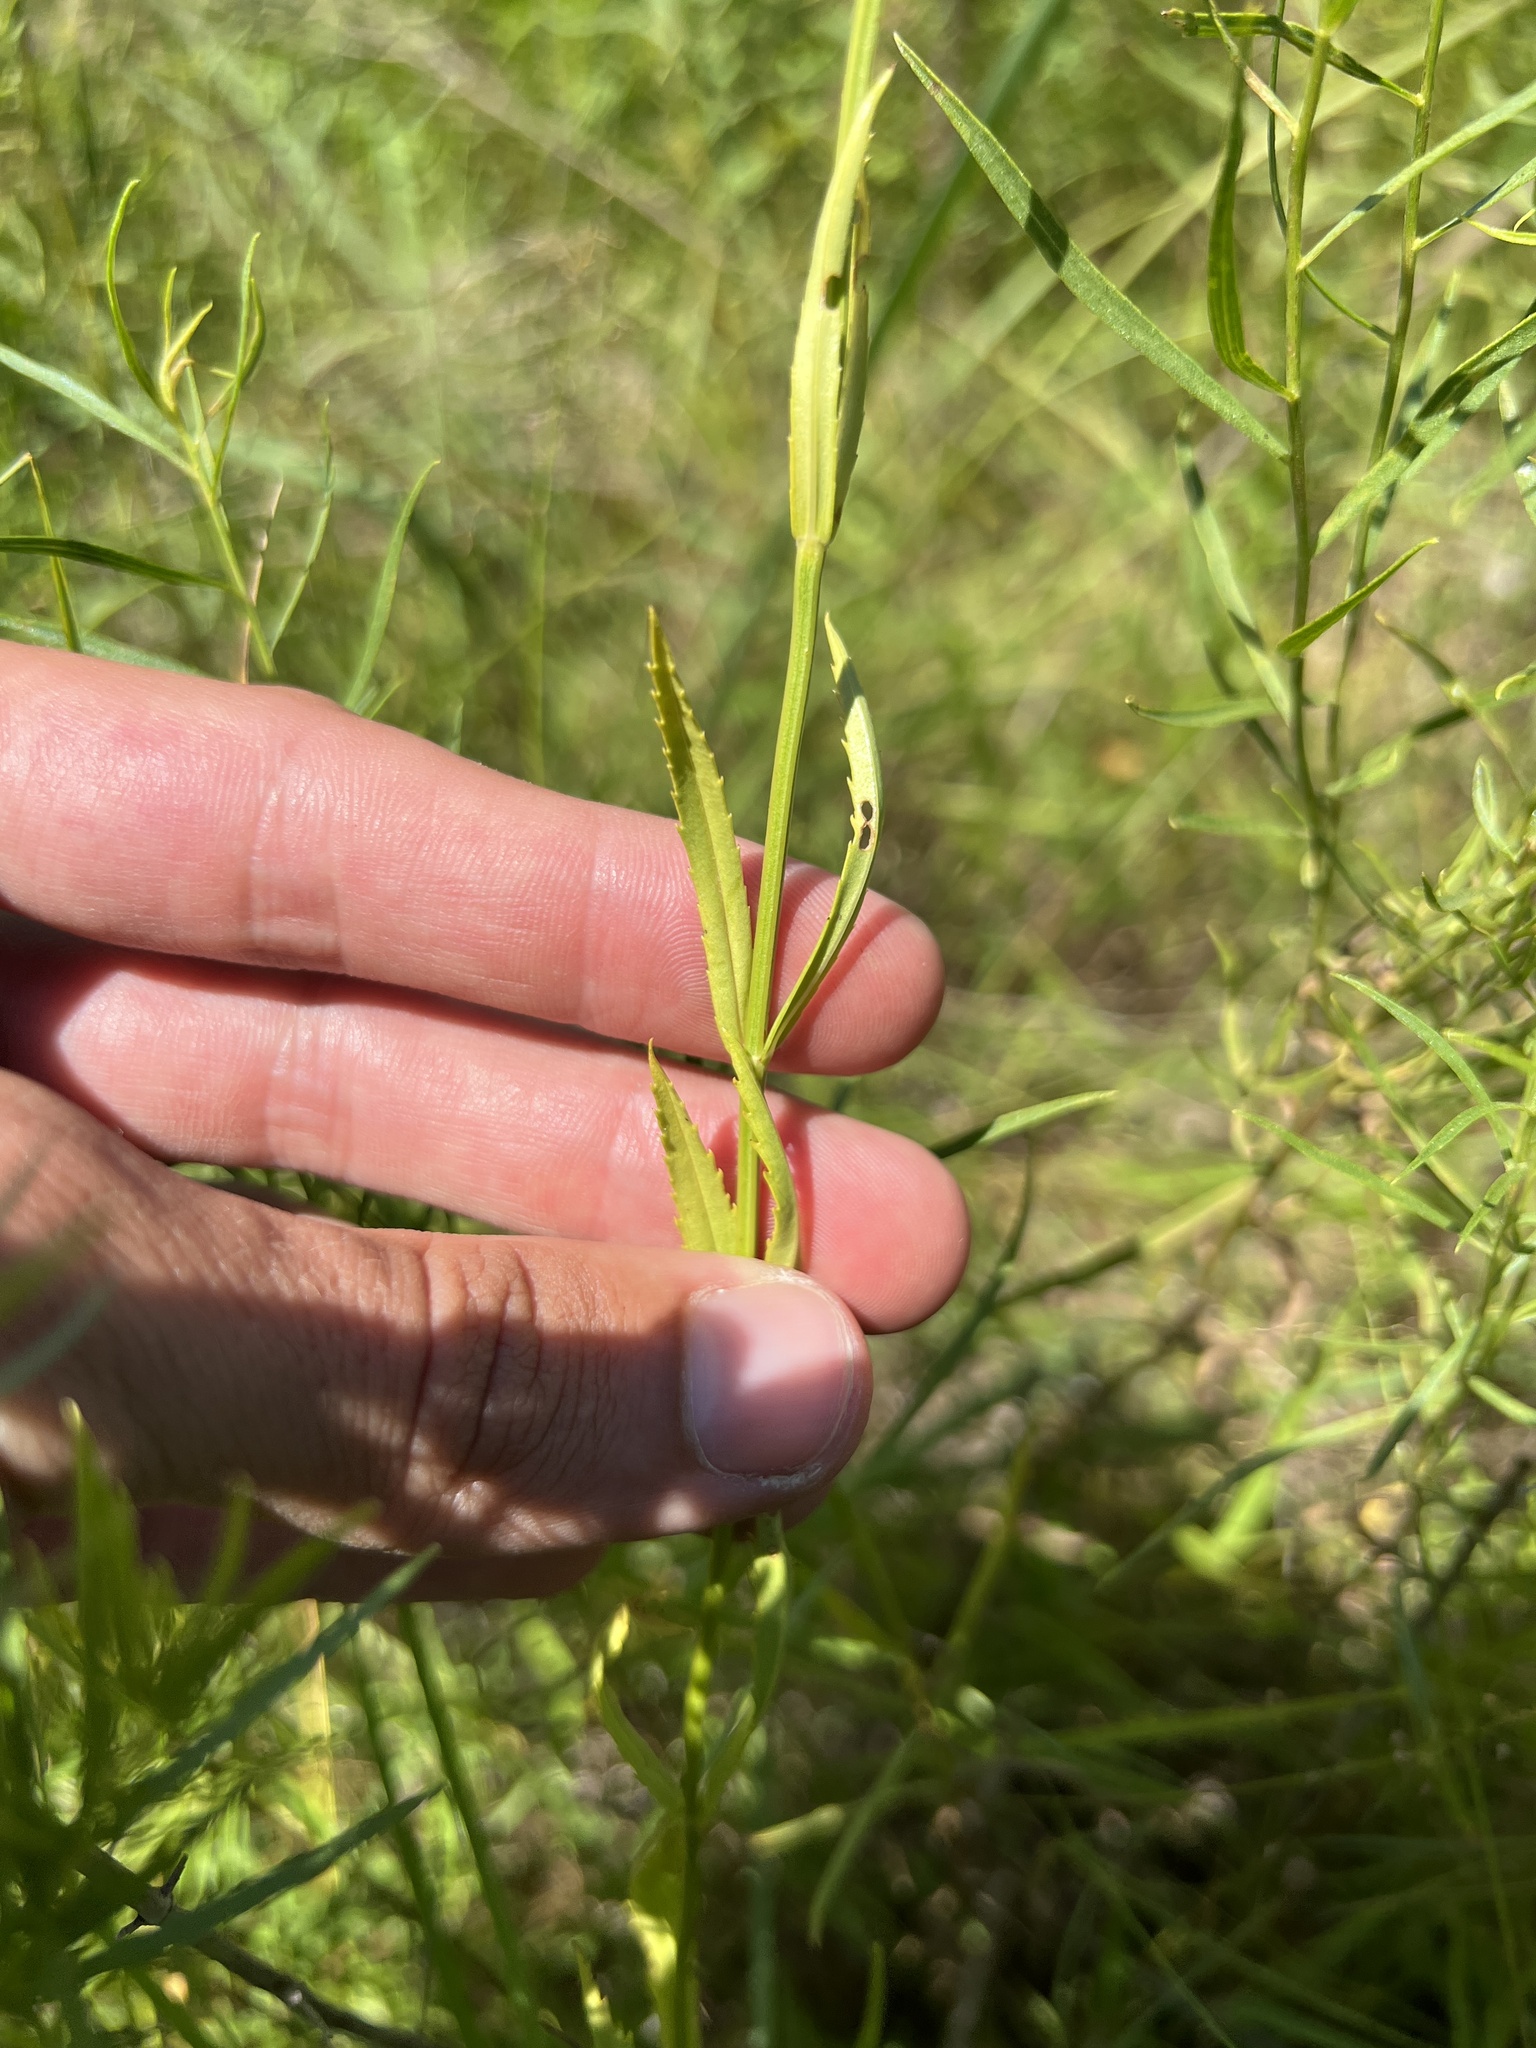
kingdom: Plantae
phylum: Tracheophyta
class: Magnoliopsida
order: Lamiales
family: Lamiaceae
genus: Physostegia
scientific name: Physostegia angustifolia
